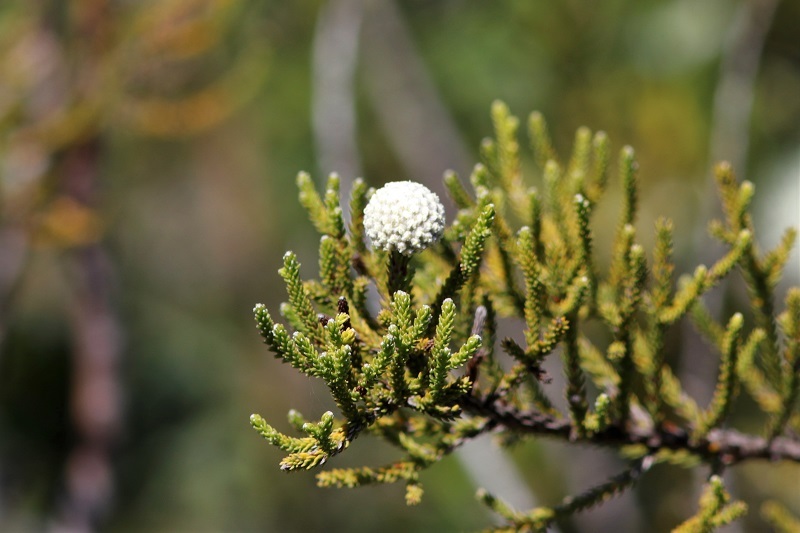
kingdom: Plantae
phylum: Tracheophyta
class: Magnoliopsida
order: Bruniales
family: Bruniaceae
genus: Brunia
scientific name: Brunia noduliflora
